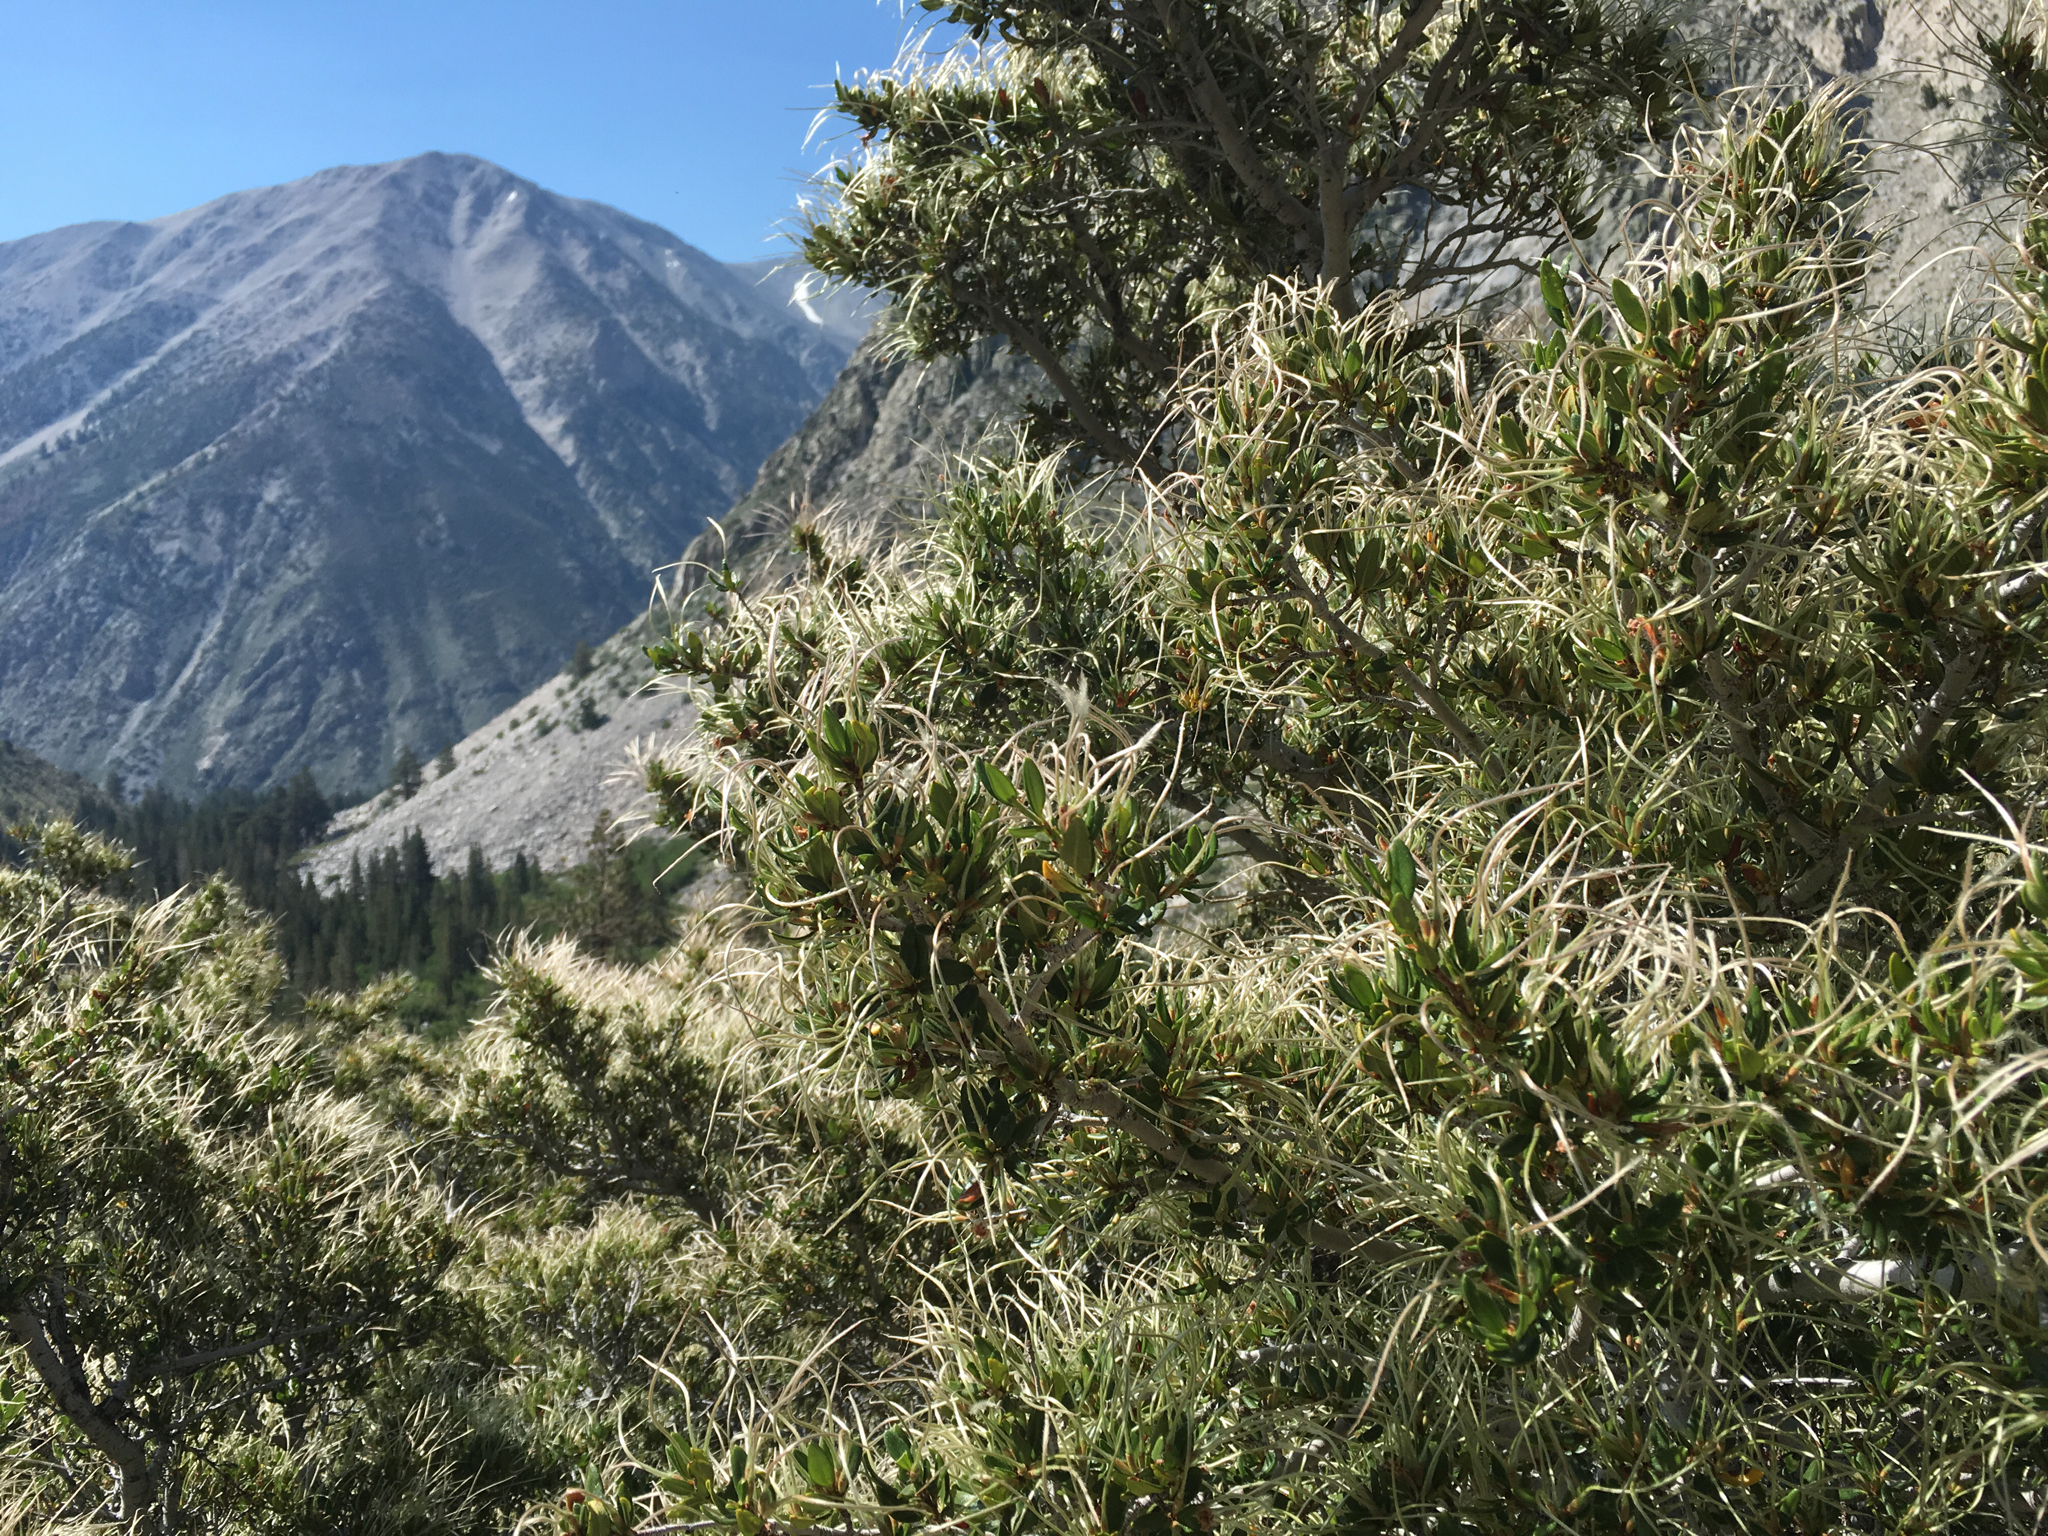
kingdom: Plantae
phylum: Tracheophyta
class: Magnoliopsida
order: Rosales
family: Rosaceae
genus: Cercocarpus
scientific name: Cercocarpus ledifolius
